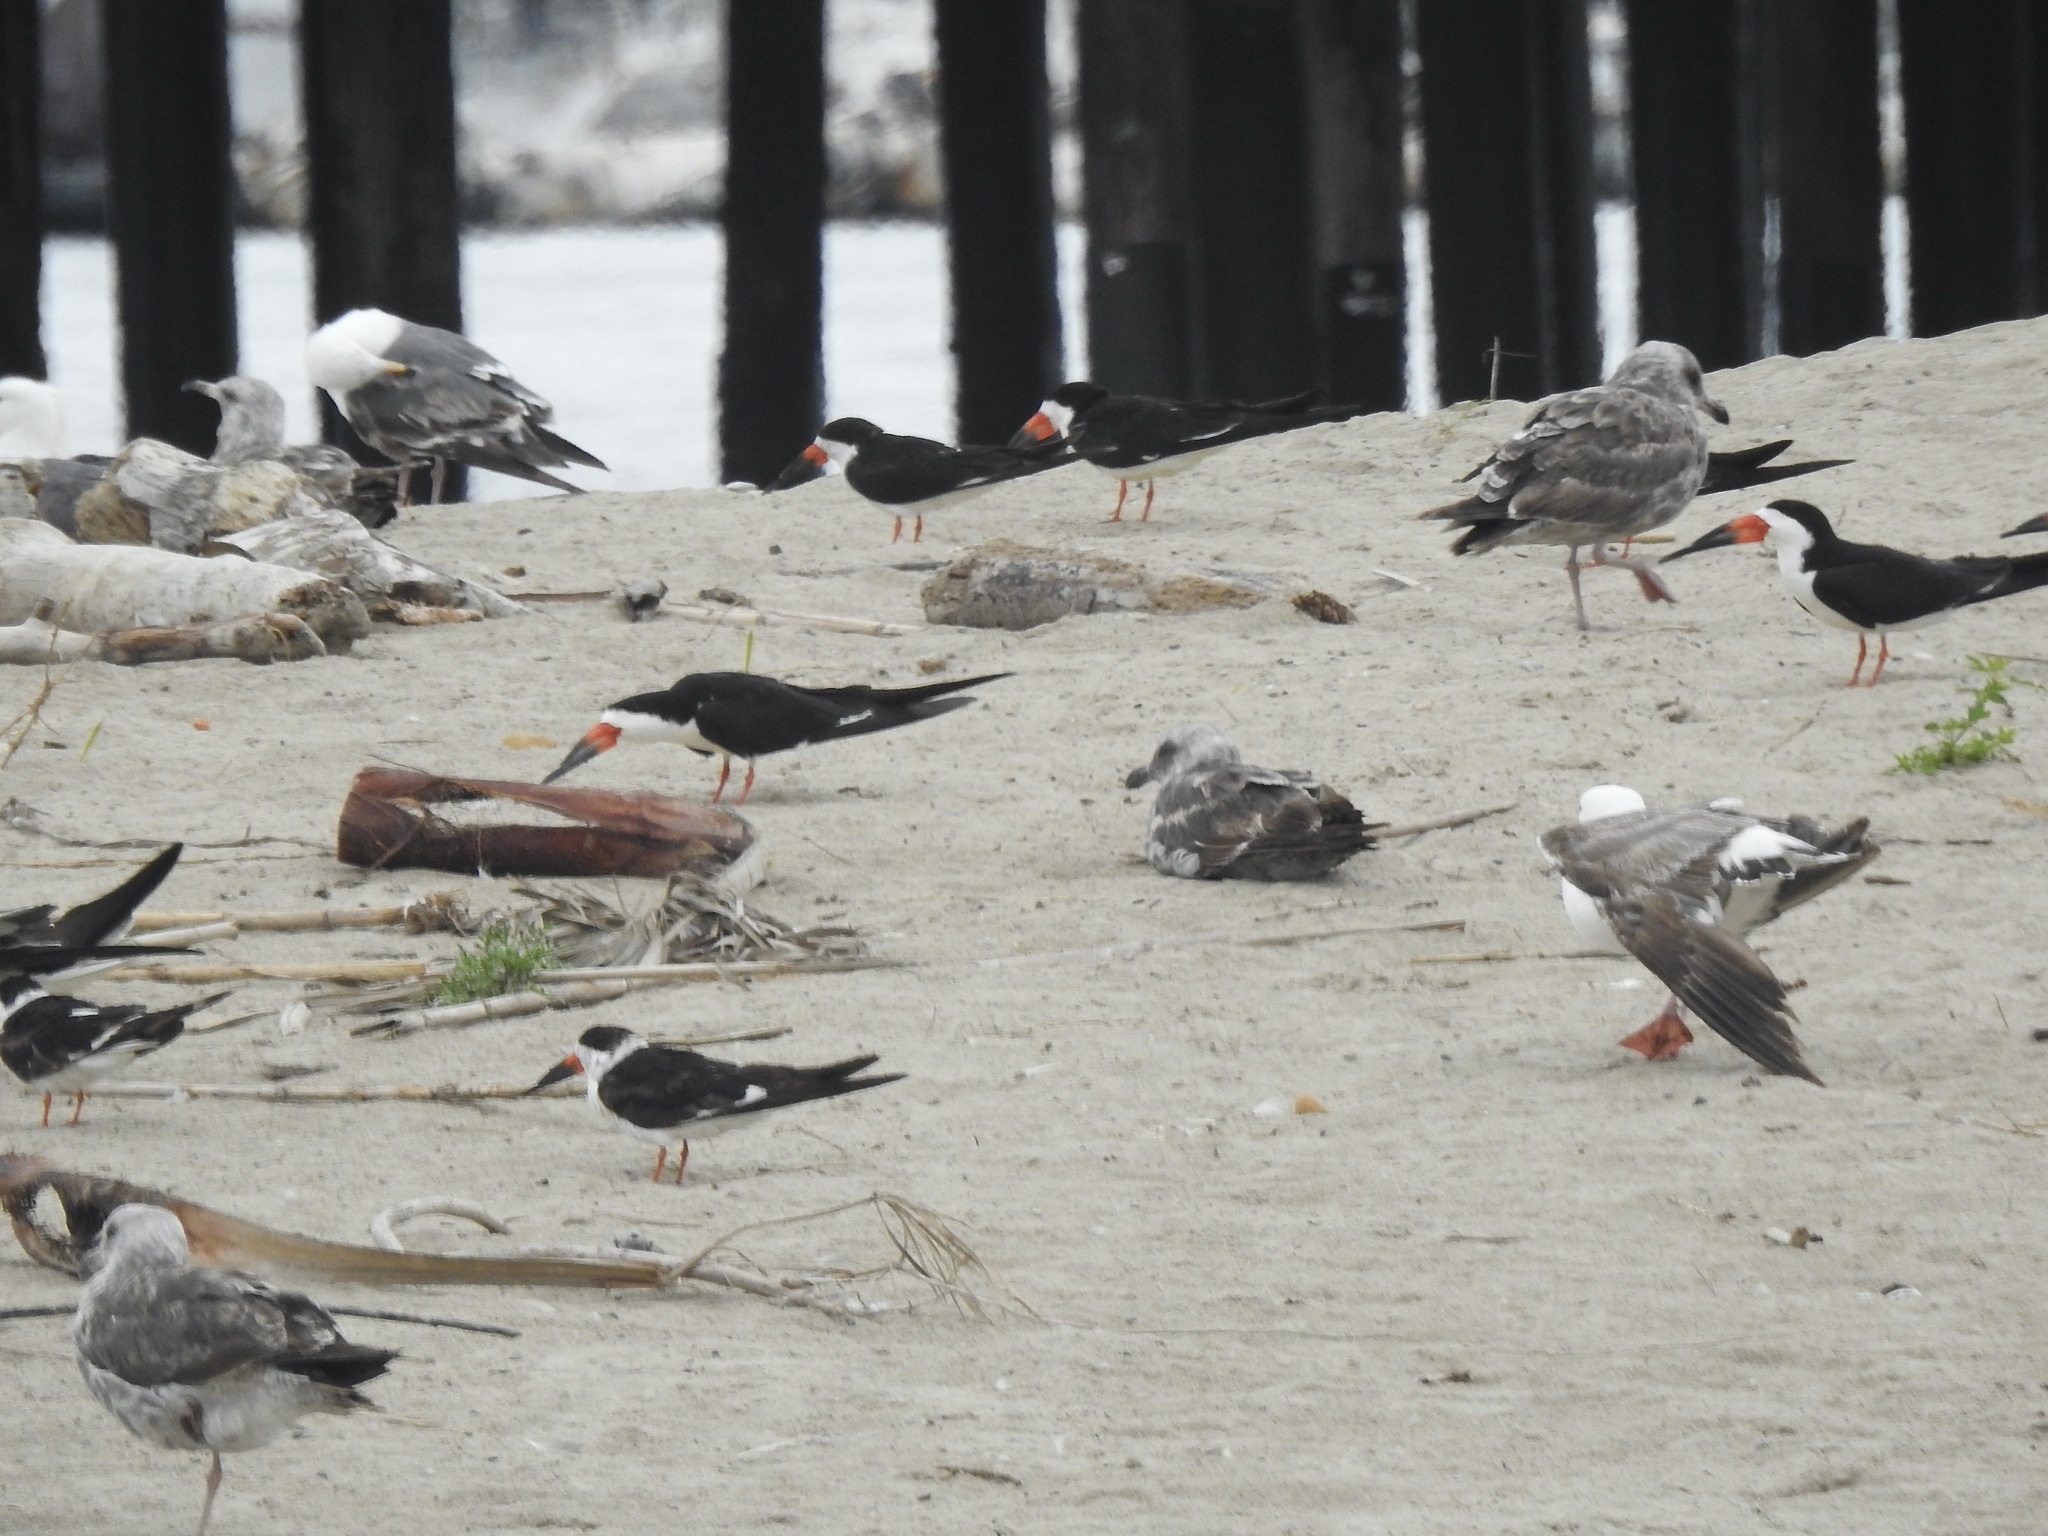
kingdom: Animalia
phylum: Chordata
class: Aves
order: Charadriiformes
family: Laridae
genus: Rynchops
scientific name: Rynchops niger
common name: Black skimmer
